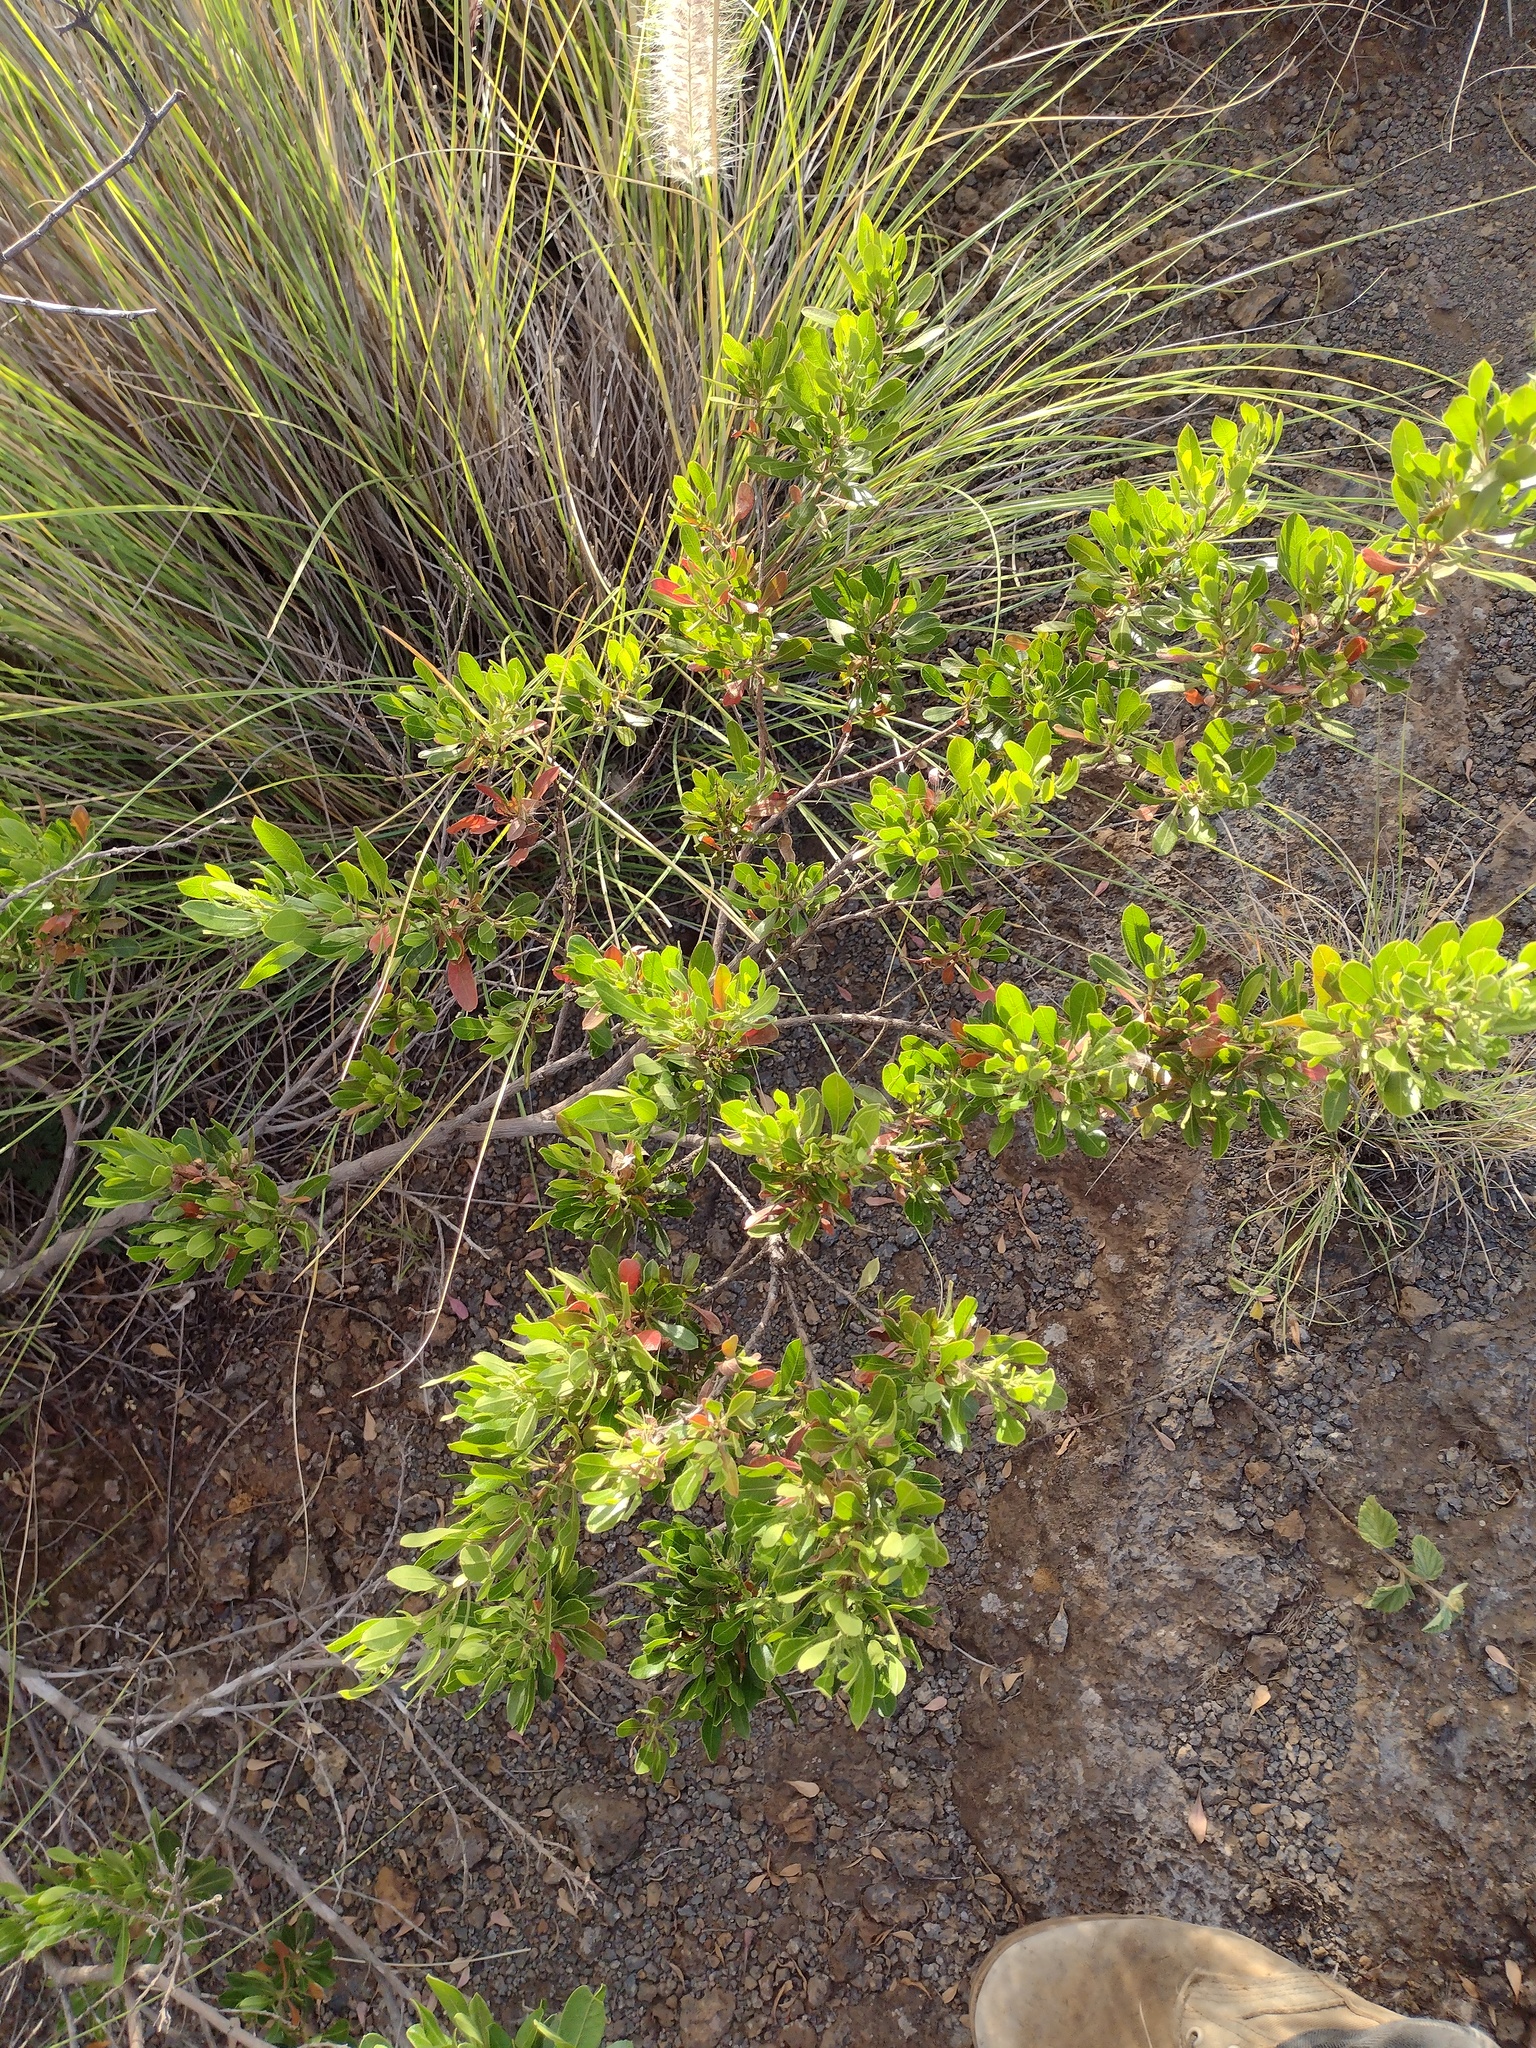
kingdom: Plantae
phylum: Tracheophyta
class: Magnoliopsida
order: Sapindales
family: Sapindaceae
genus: Dodonaea
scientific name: Dodonaea viscosa
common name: Hopbush
